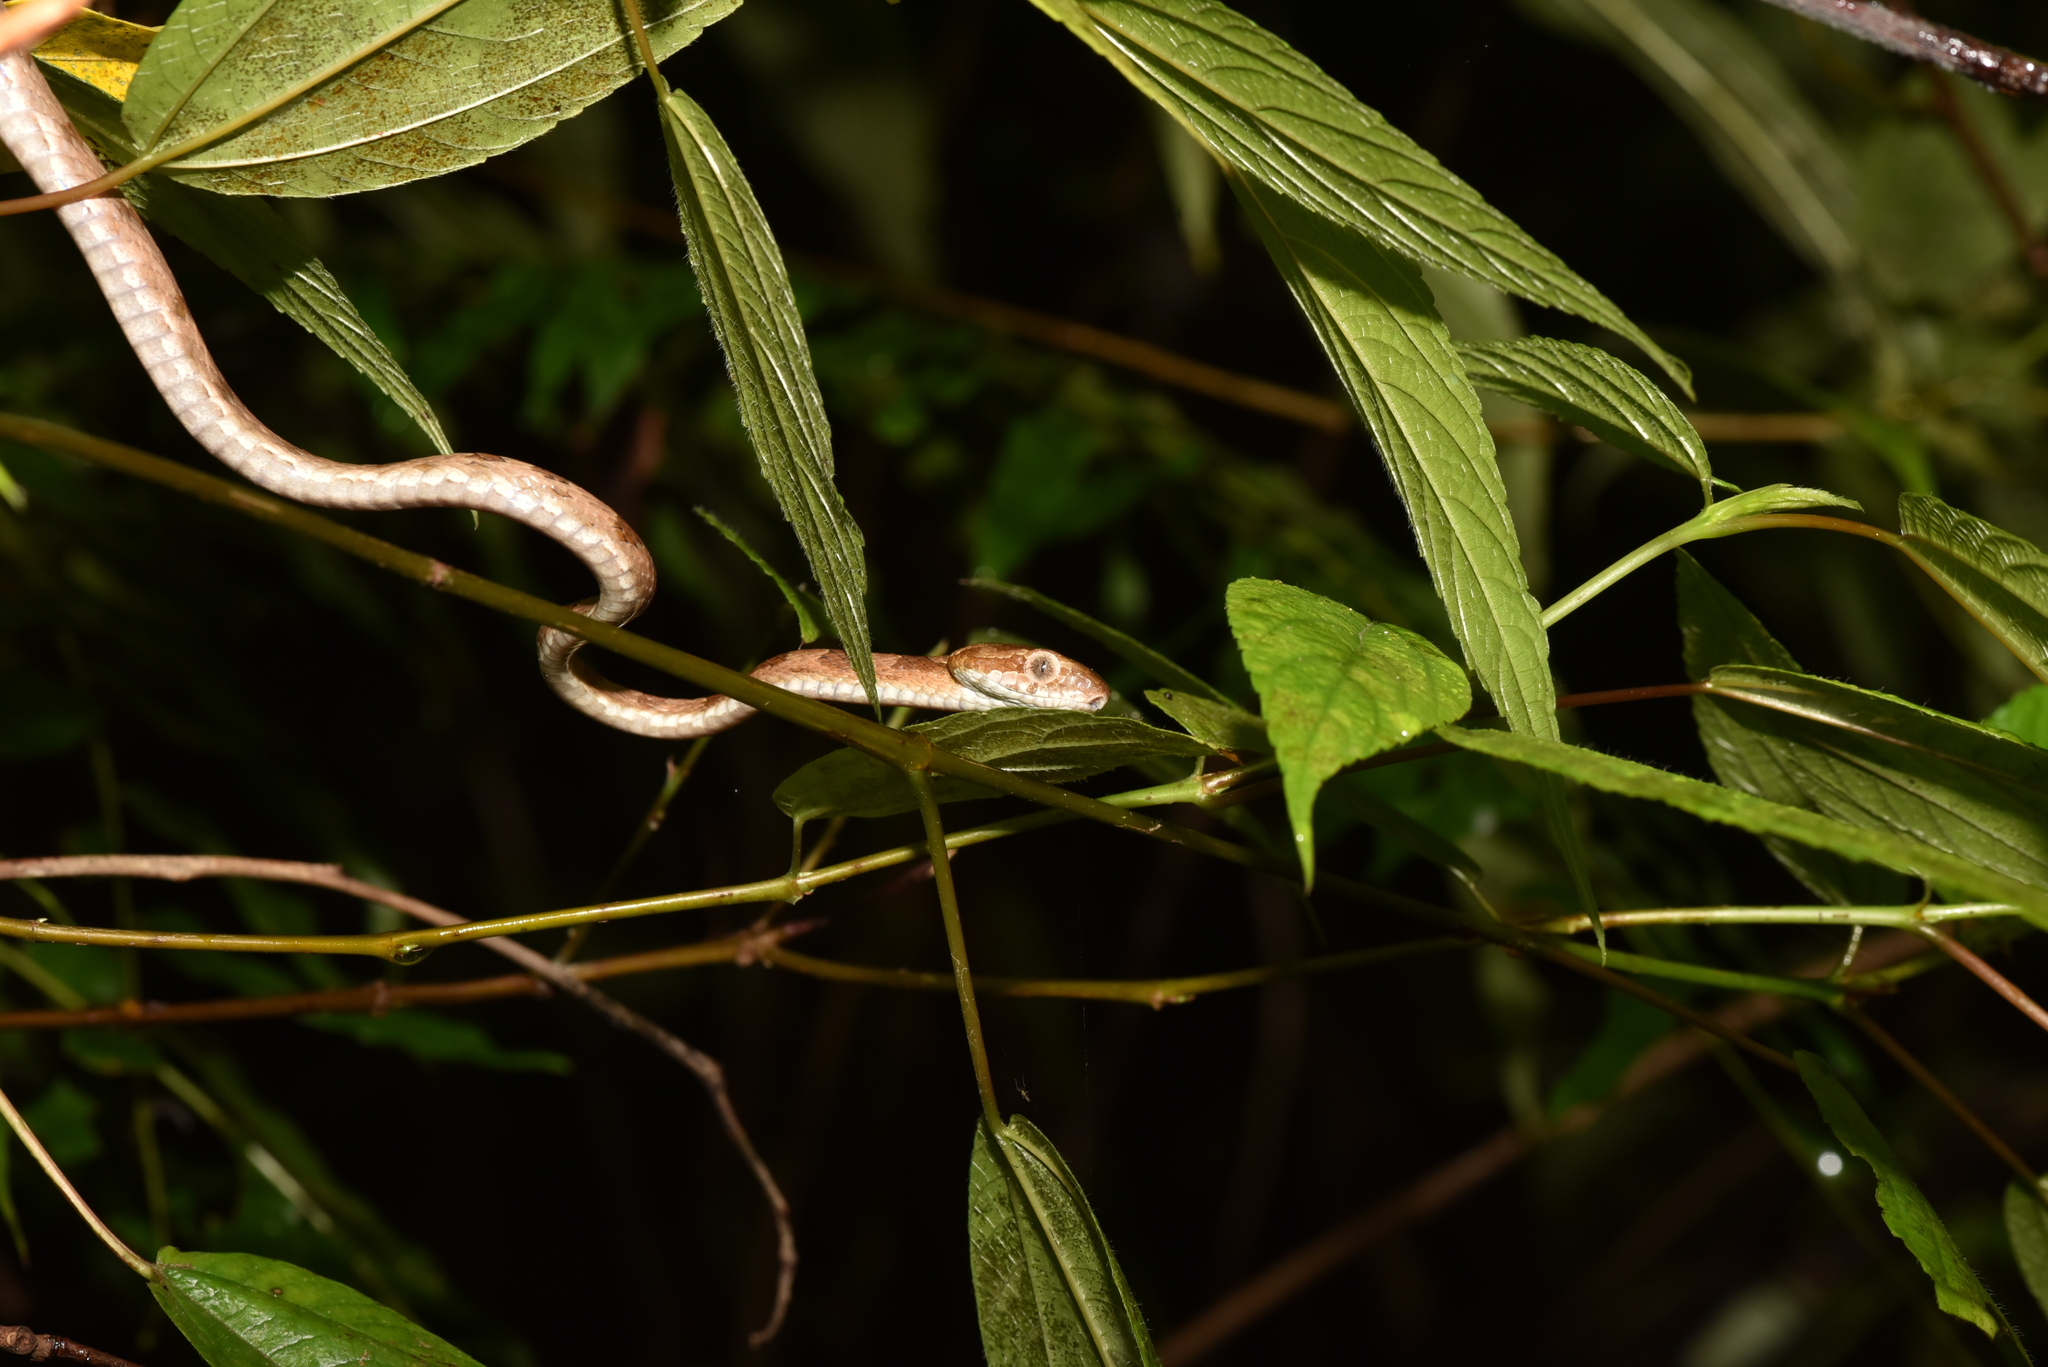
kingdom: Animalia
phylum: Chordata
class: Squamata
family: Colubridae
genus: Boiga
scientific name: Boiga kraepelini
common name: Kelung cat snake
